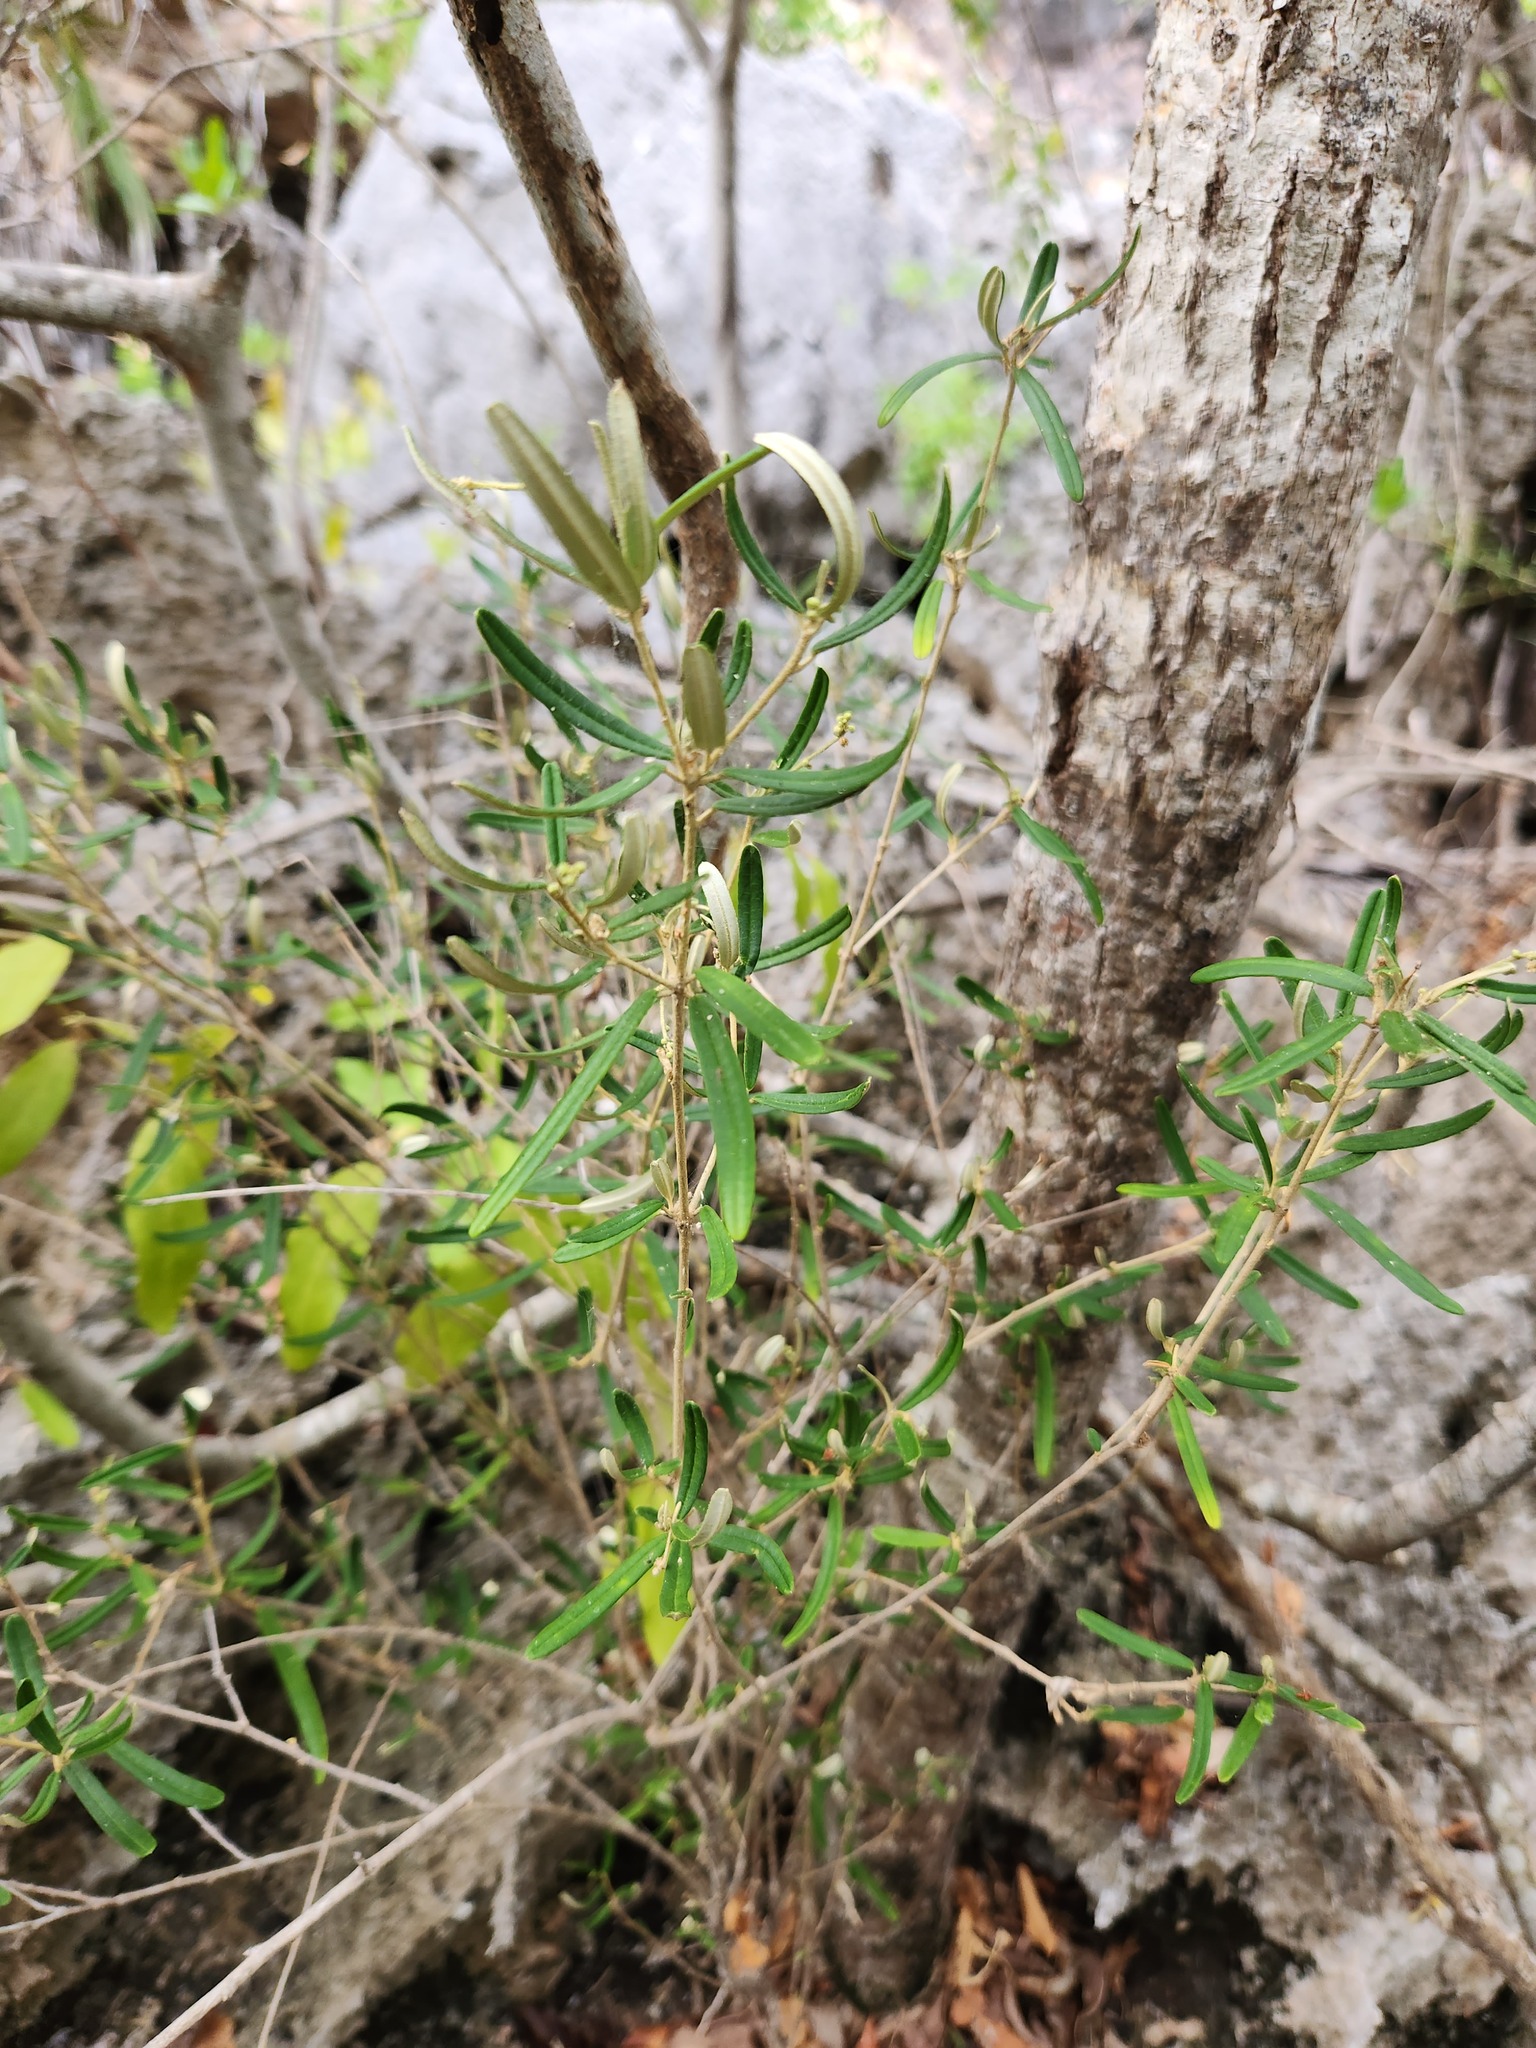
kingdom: Plantae
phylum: Tracheophyta
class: Magnoliopsida
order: Malpighiales
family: Euphorbiaceae
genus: Croton
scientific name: Croton linearis
